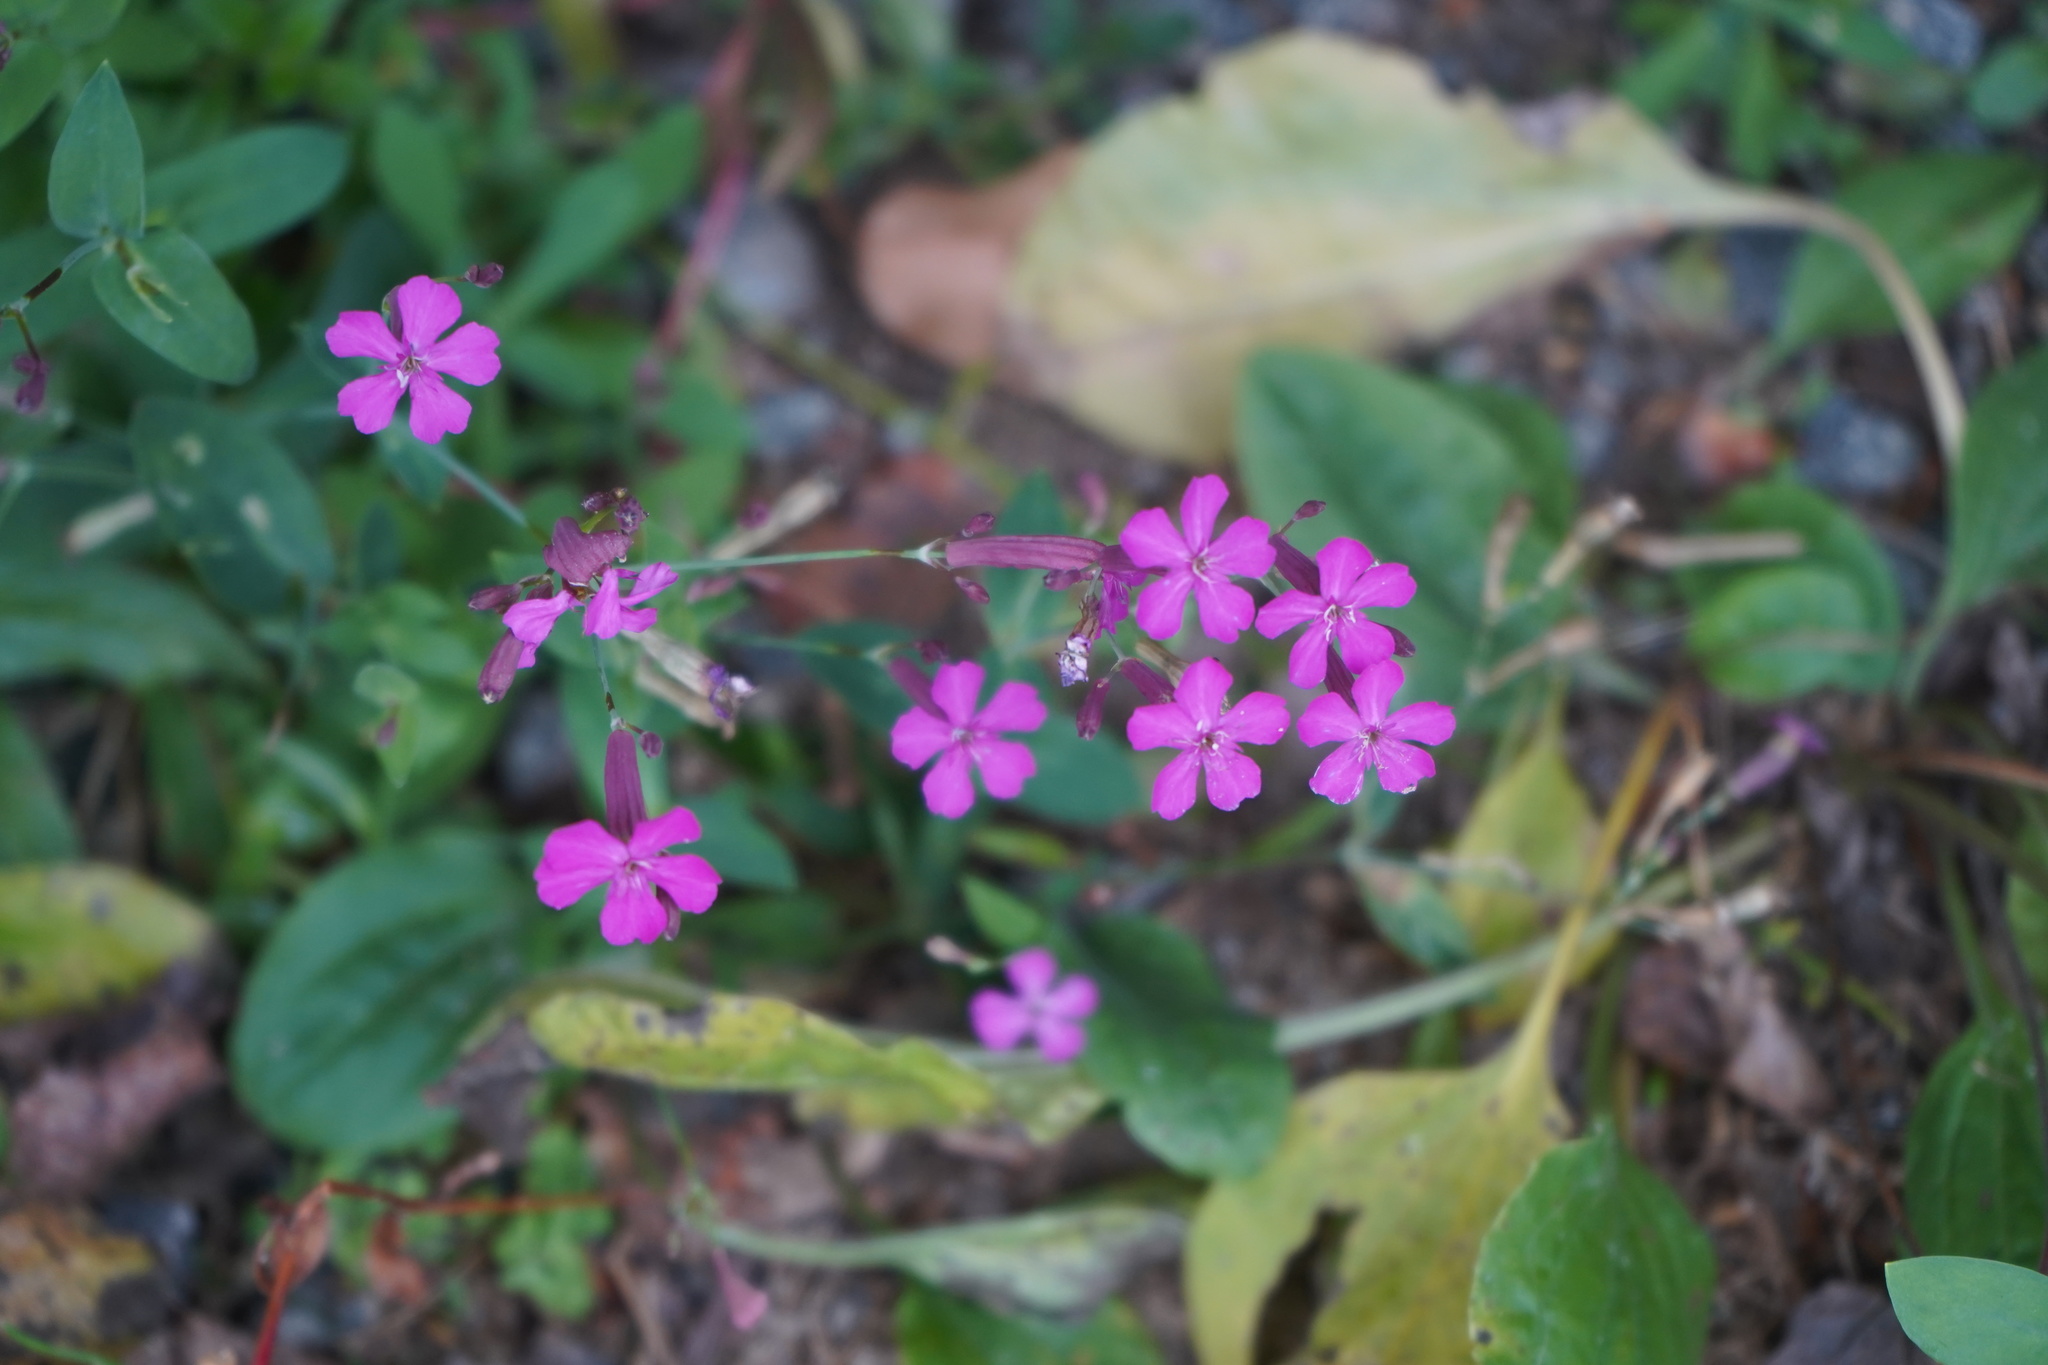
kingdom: Plantae
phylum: Tracheophyta
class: Magnoliopsida
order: Caryophyllales
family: Caryophyllaceae
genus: Atocion
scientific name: Atocion armeria
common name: Sweet william catchfly
